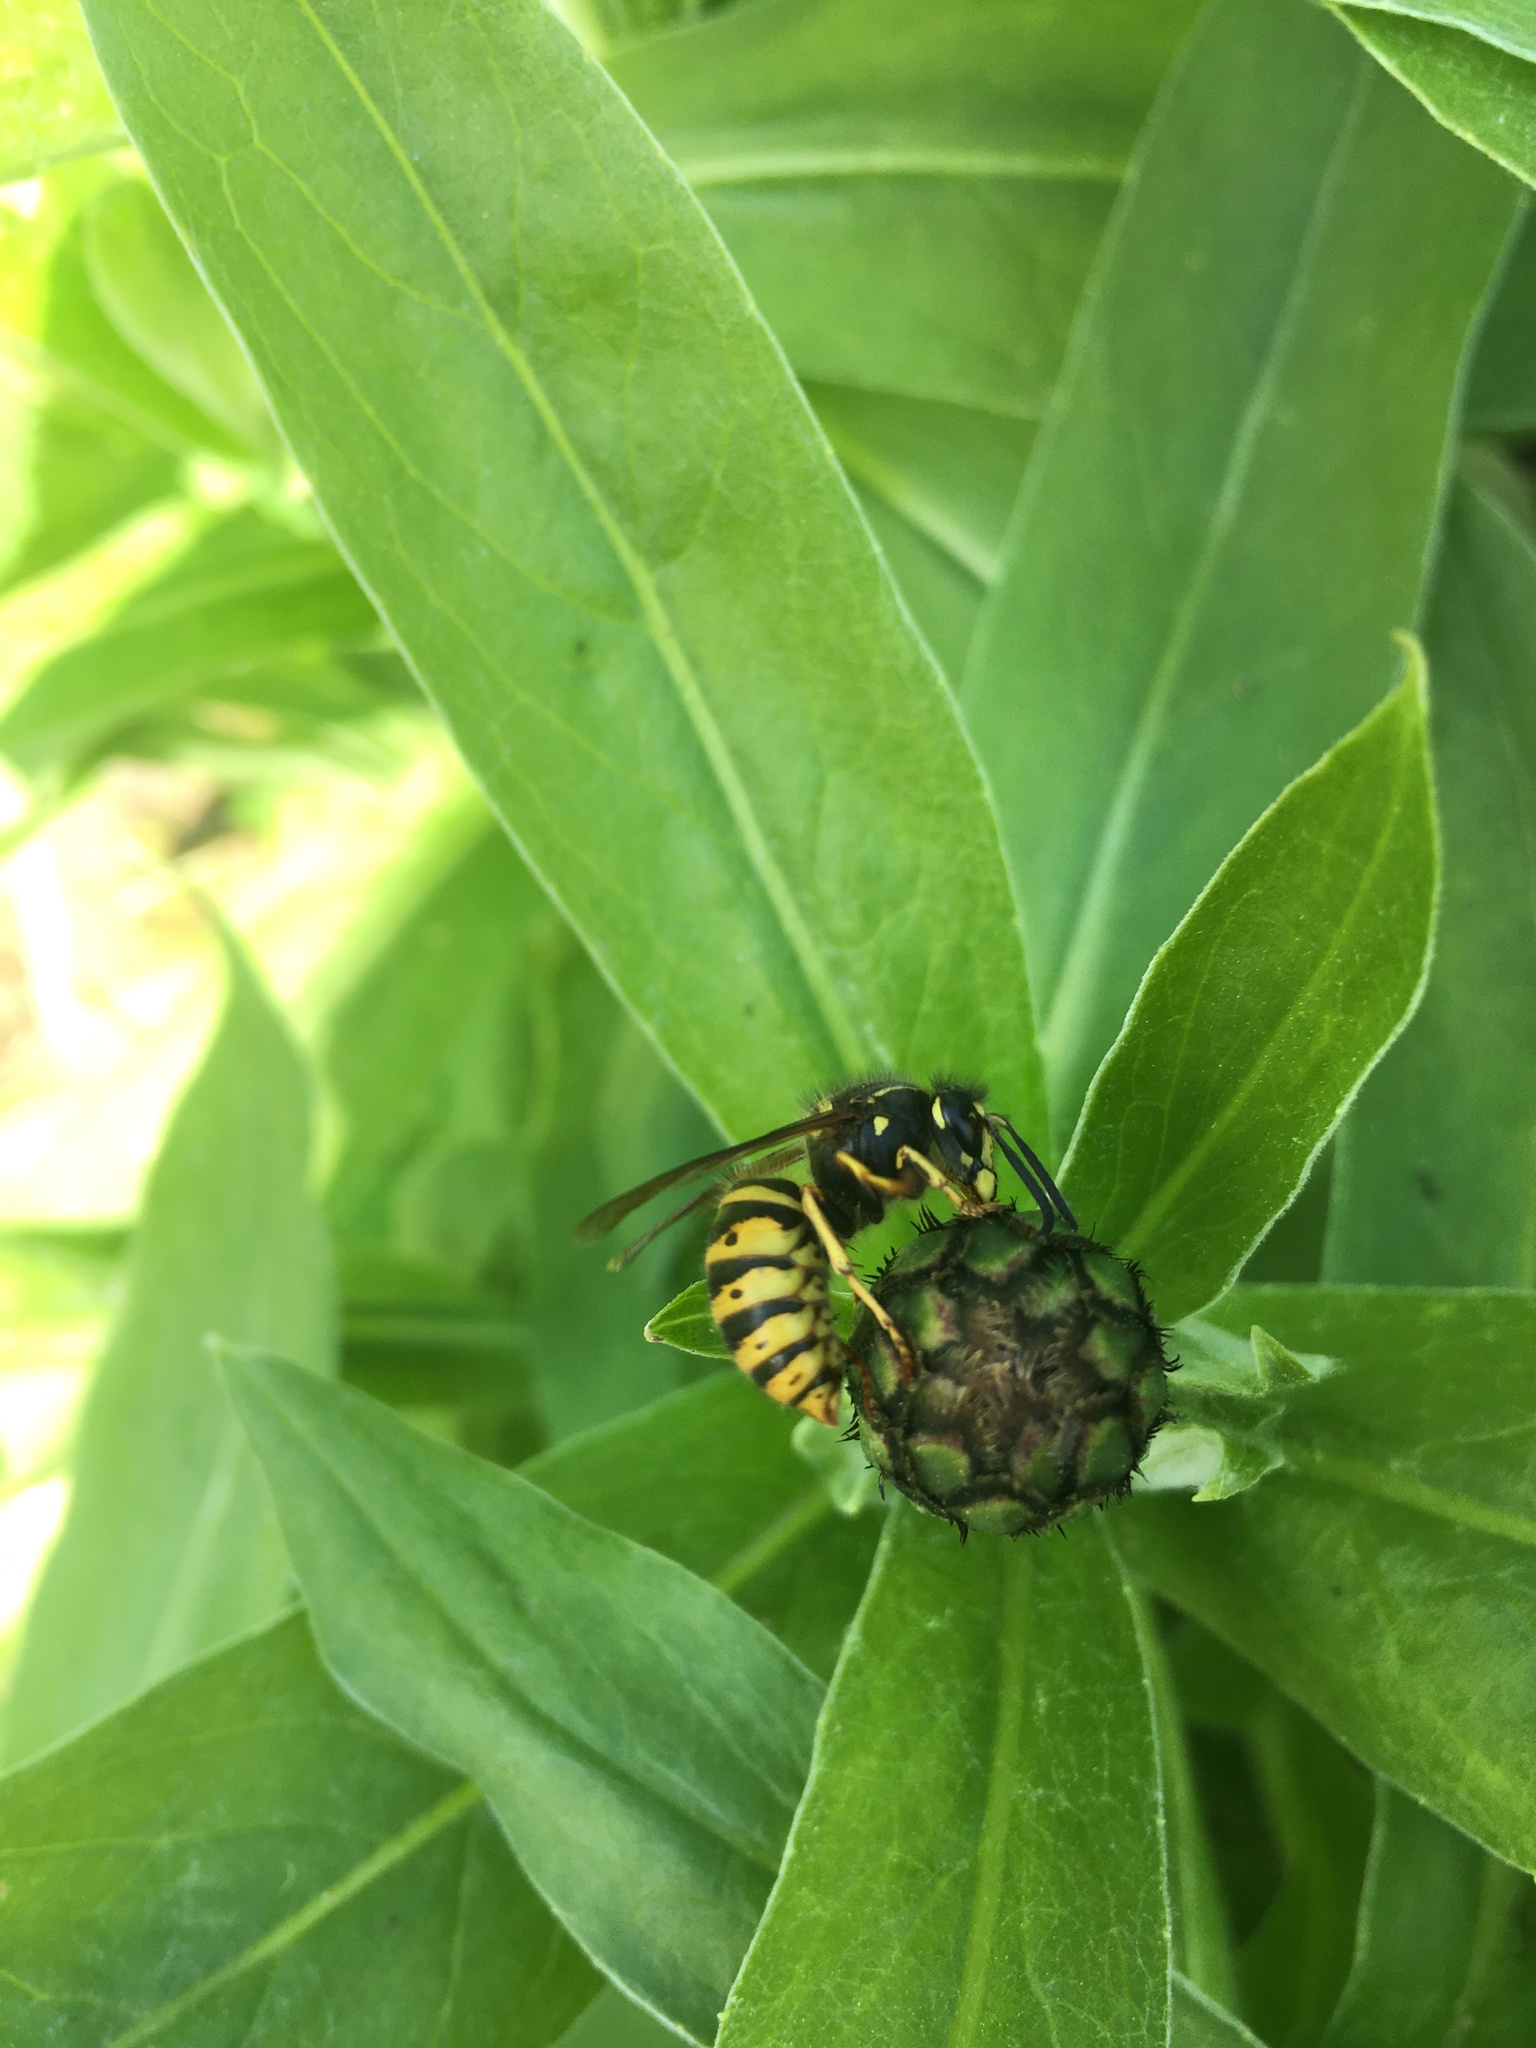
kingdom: Animalia
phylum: Arthropoda
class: Insecta
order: Hymenoptera
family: Vespidae
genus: Dolichovespula
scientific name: Dolichovespula saxonica
